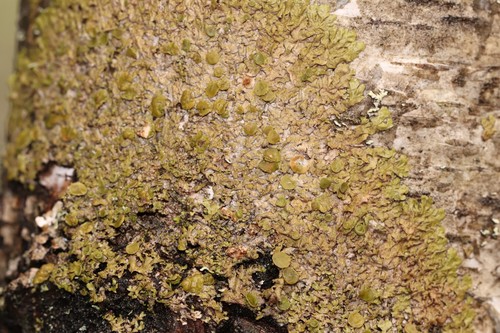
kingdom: Fungi
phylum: Ascomycota
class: Lecanoromycetes
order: Lecanorales
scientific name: Lecanorales
